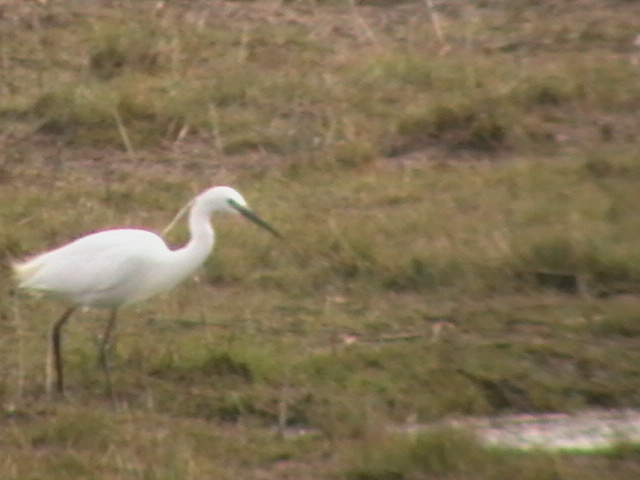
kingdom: Animalia
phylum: Chordata
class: Aves
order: Pelecaniformes
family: Ardeidae
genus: Egretta
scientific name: Egretta garzetta
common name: Little egret
